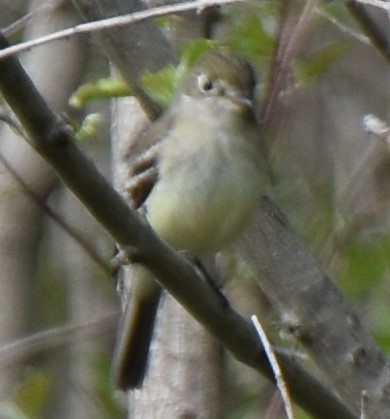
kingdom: Animalia
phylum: Chordata
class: Aves
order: Passeriformes
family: Tyrannidae
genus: Empidonax
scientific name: Empidonax minimus
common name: Least flycatcher
